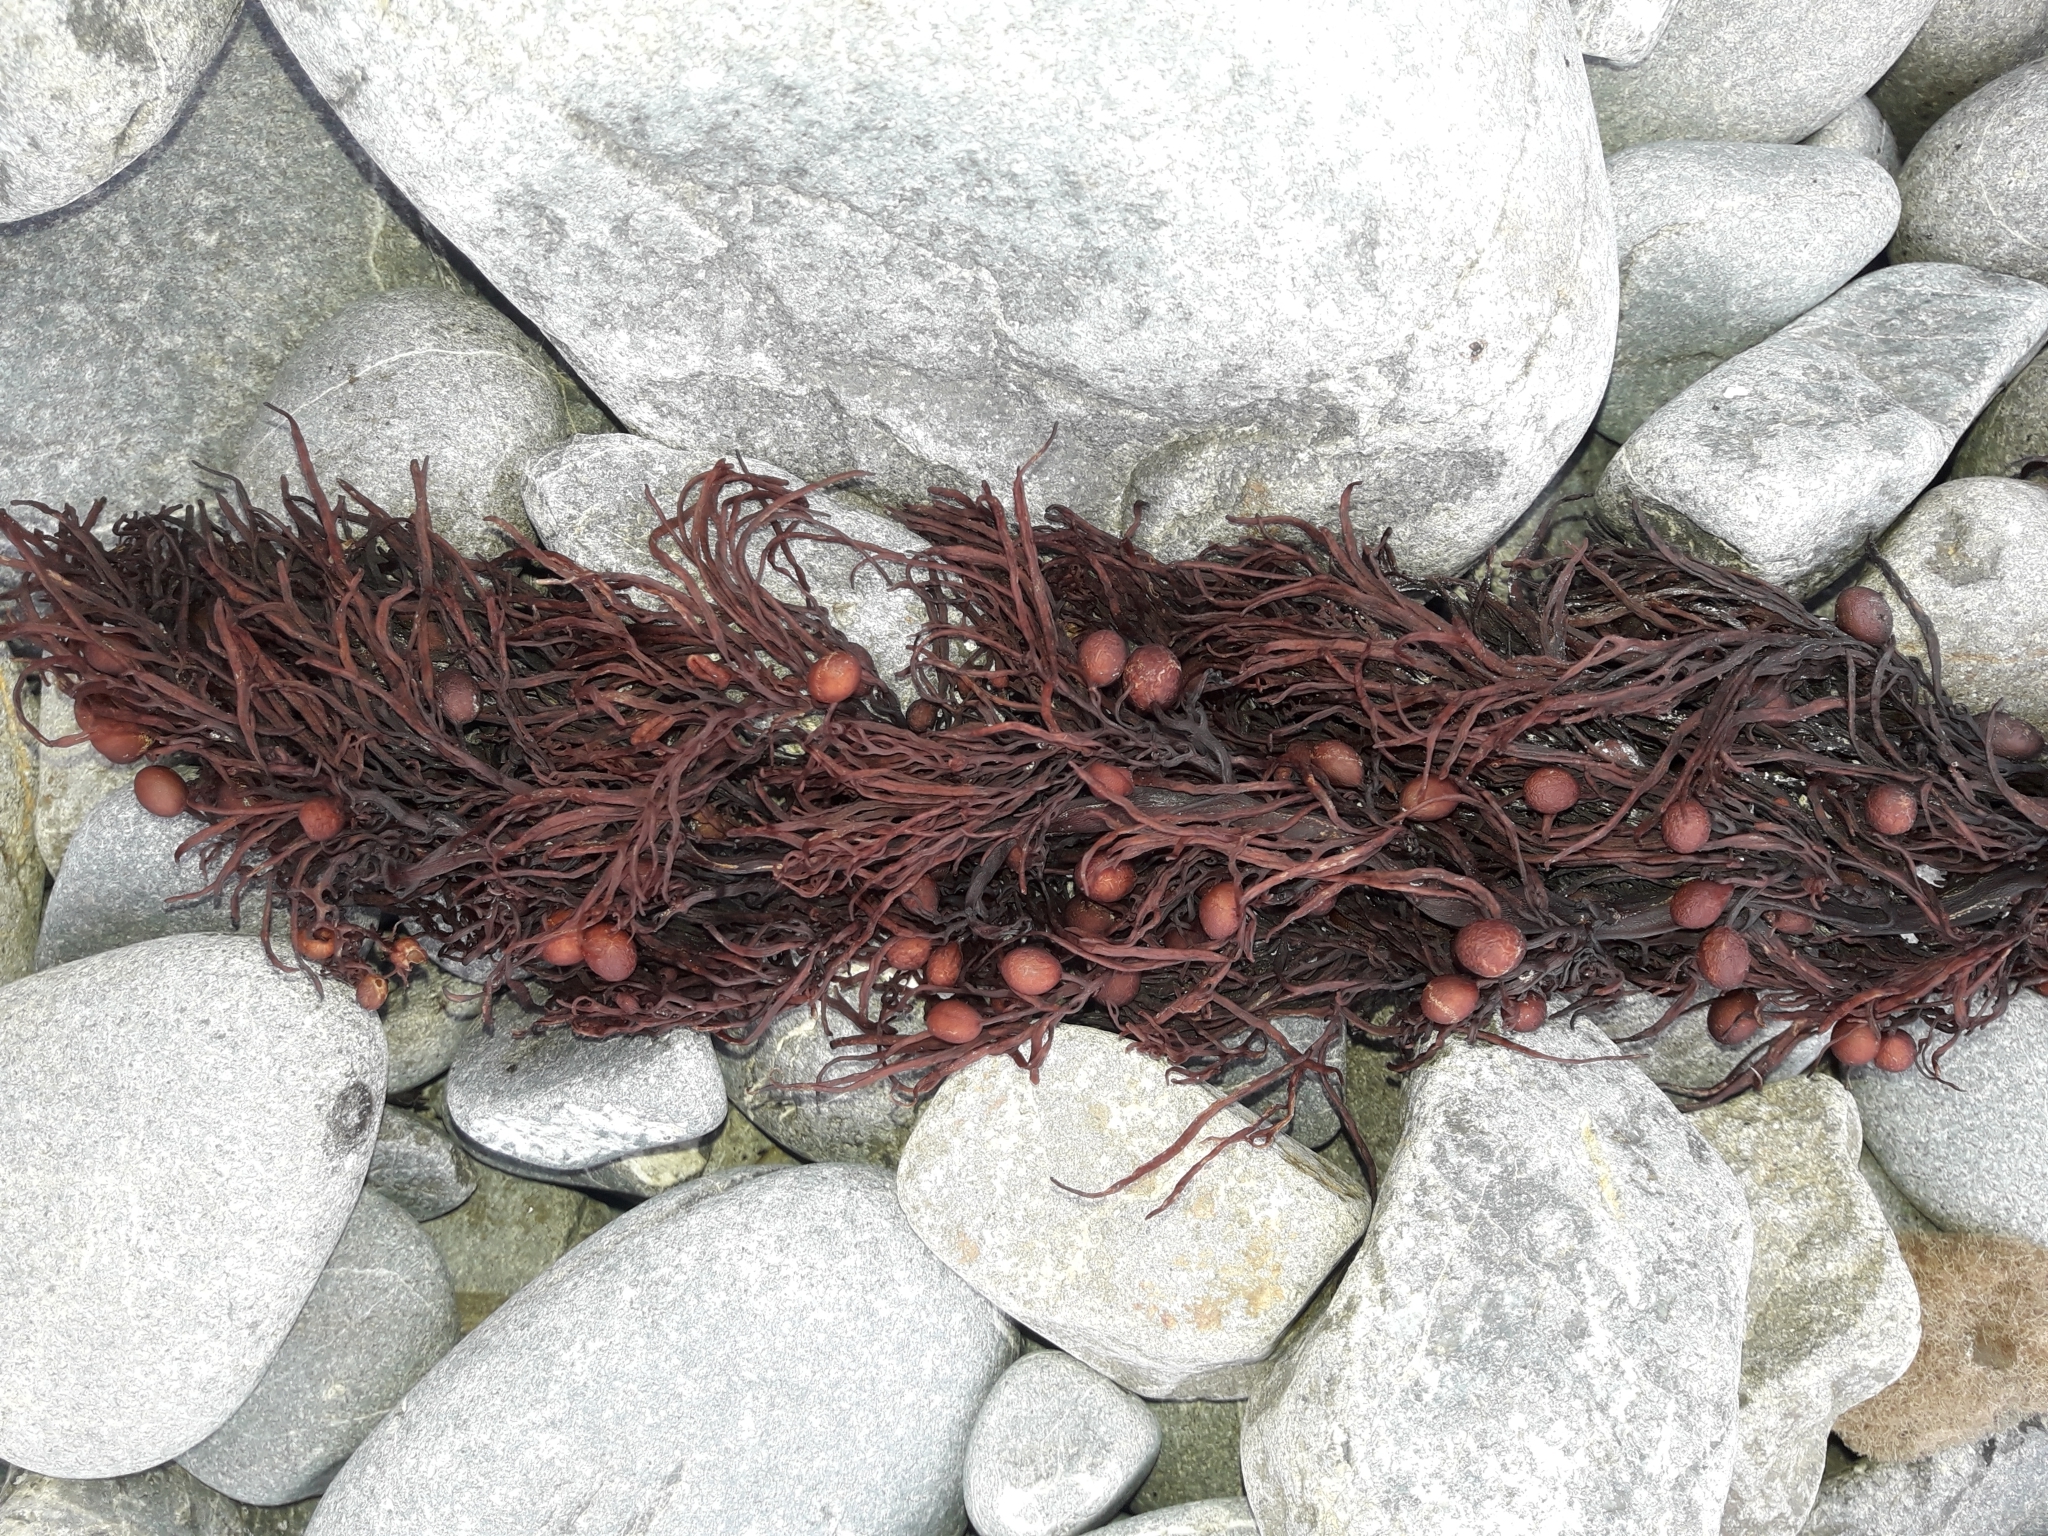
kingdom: Chromista
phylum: Ochrophyta
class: Phaeophyceae
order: Fucales
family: Sargassaceae
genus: Cystophora
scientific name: Cystophora retroflexa
